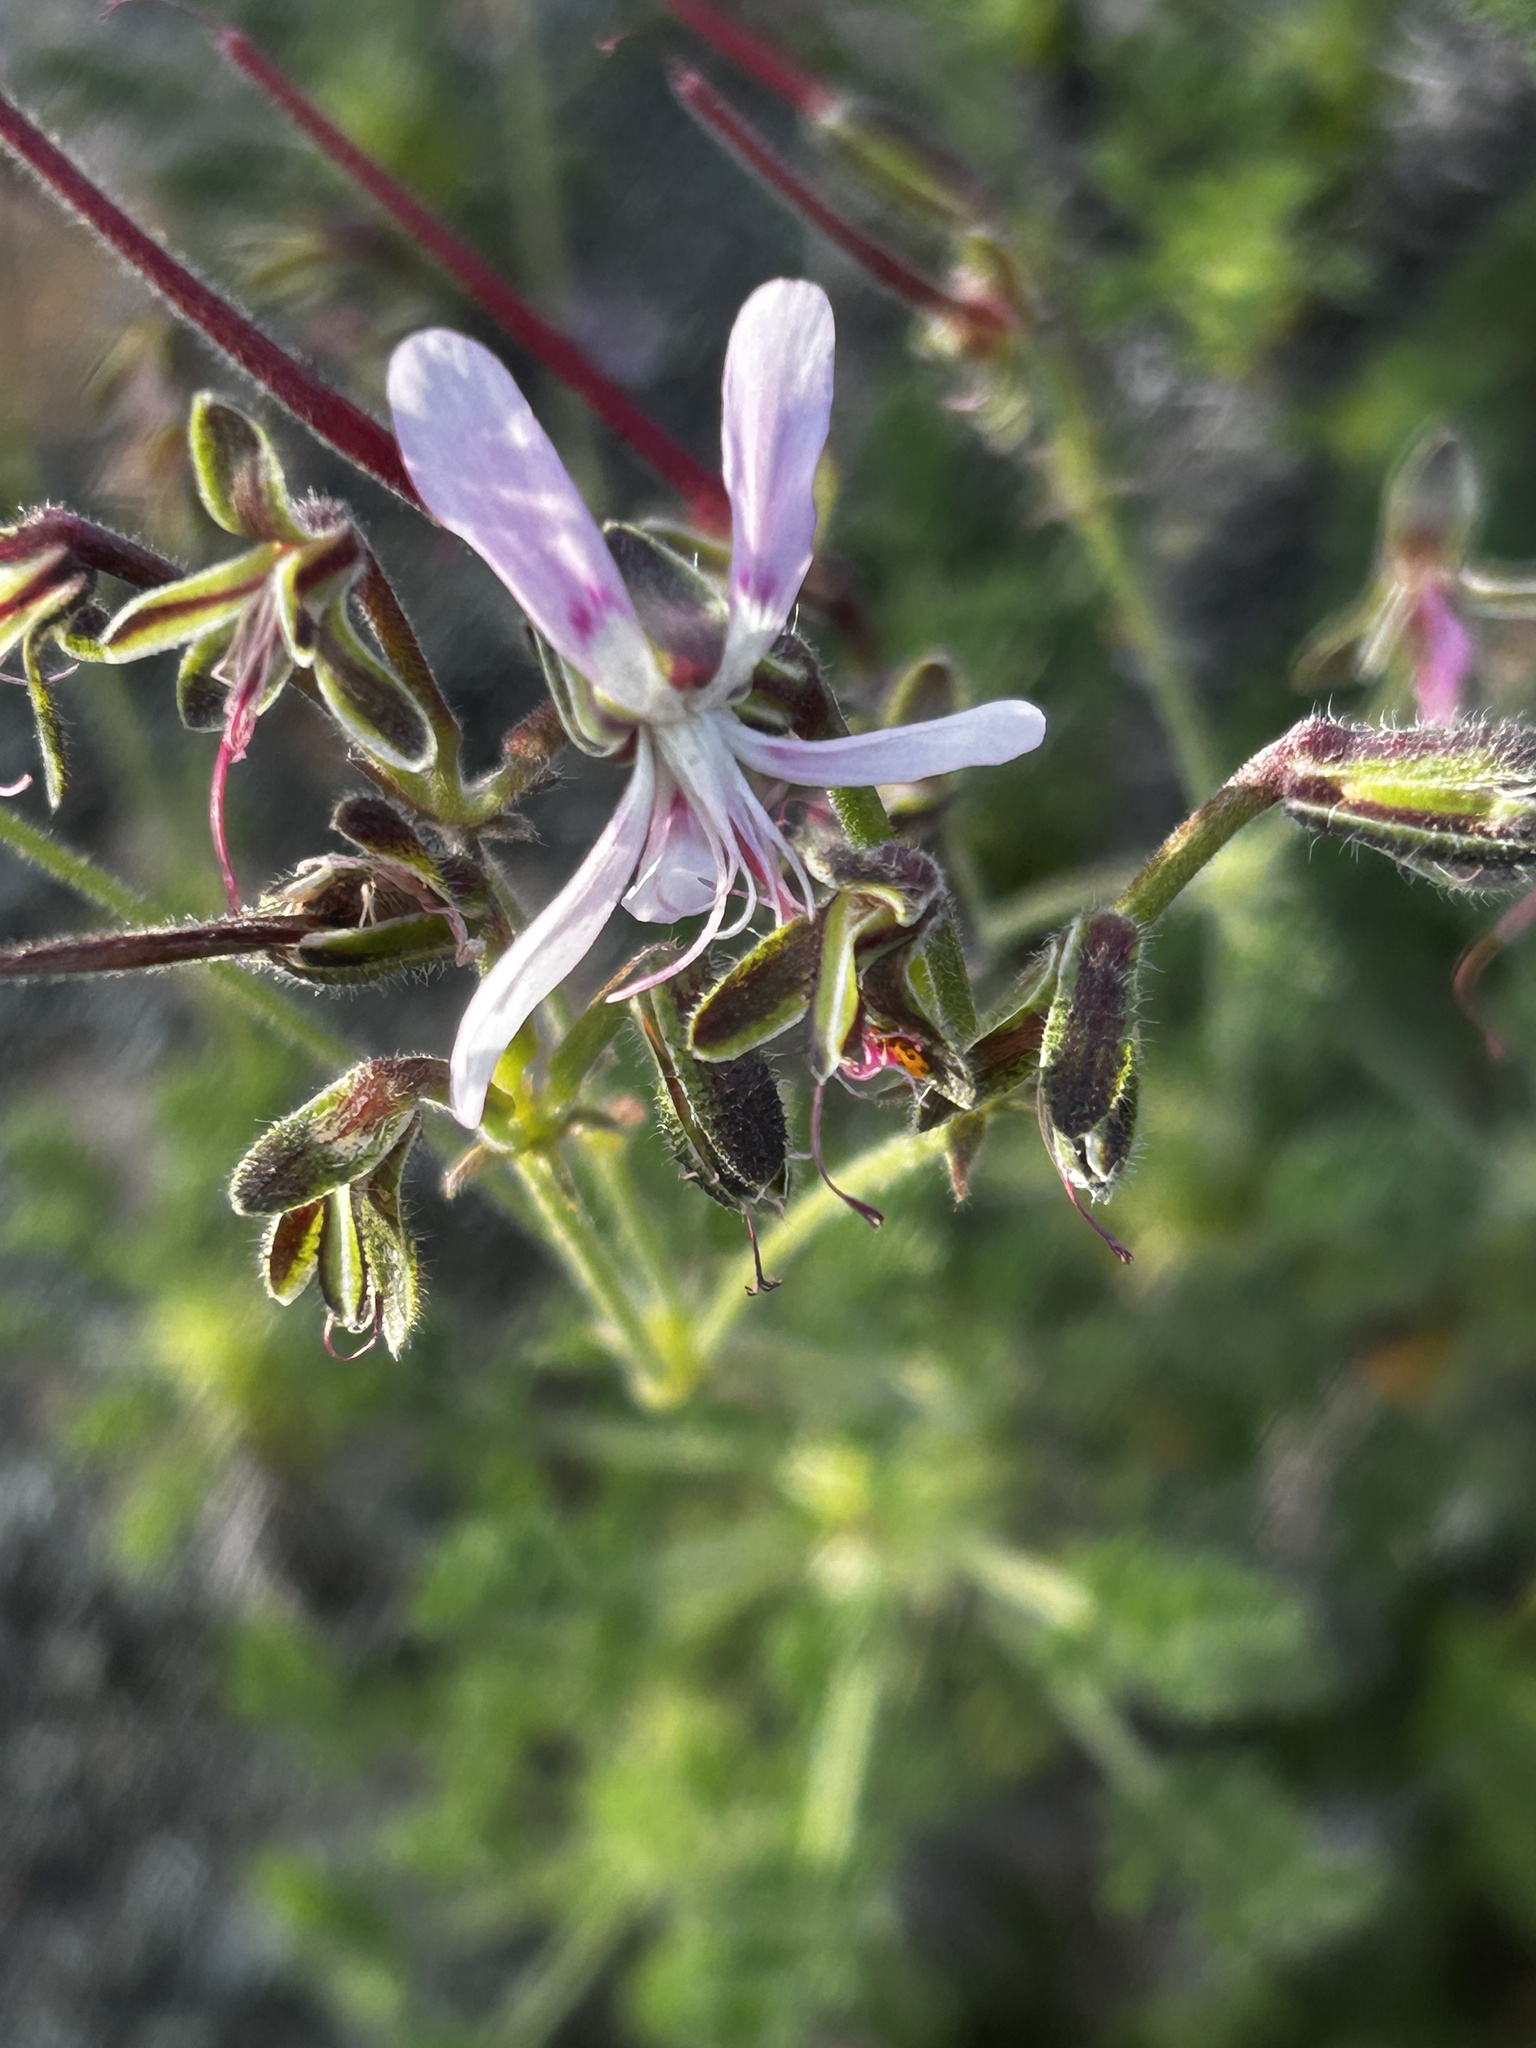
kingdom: Plantae
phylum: Tracheophyta
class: Magnoliopsida
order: Geraniales
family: Geraniaceae
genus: Pelargonium
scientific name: Pelargonium oreophilum
